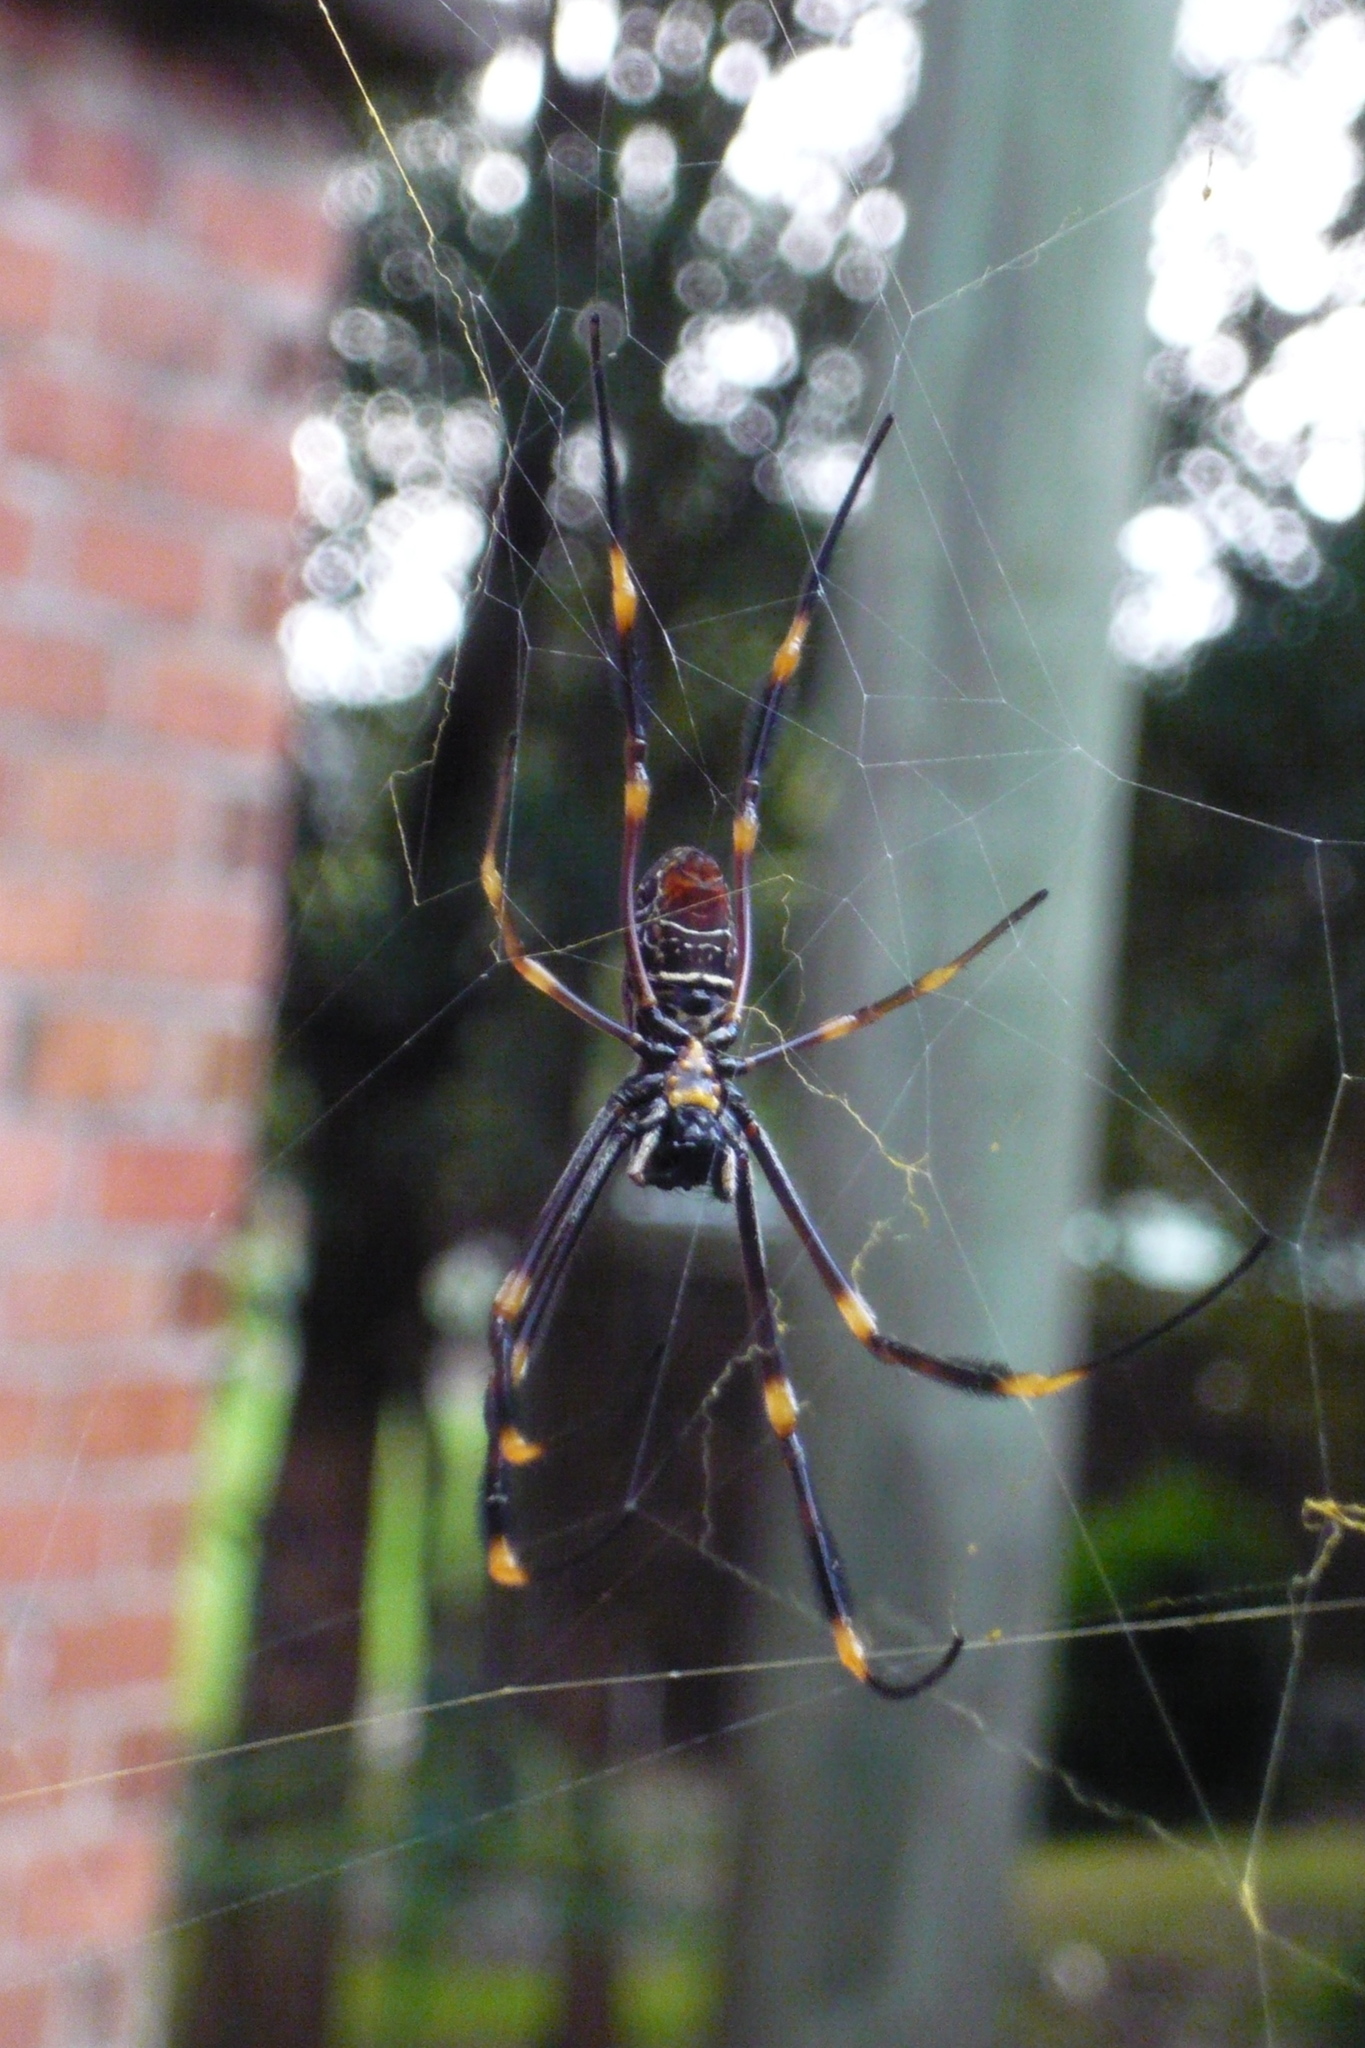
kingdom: Animalia
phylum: Arthropoda
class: Arachnida
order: Araneae
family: Araneidae
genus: Trichonephila
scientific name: Trichonephila plumipes
